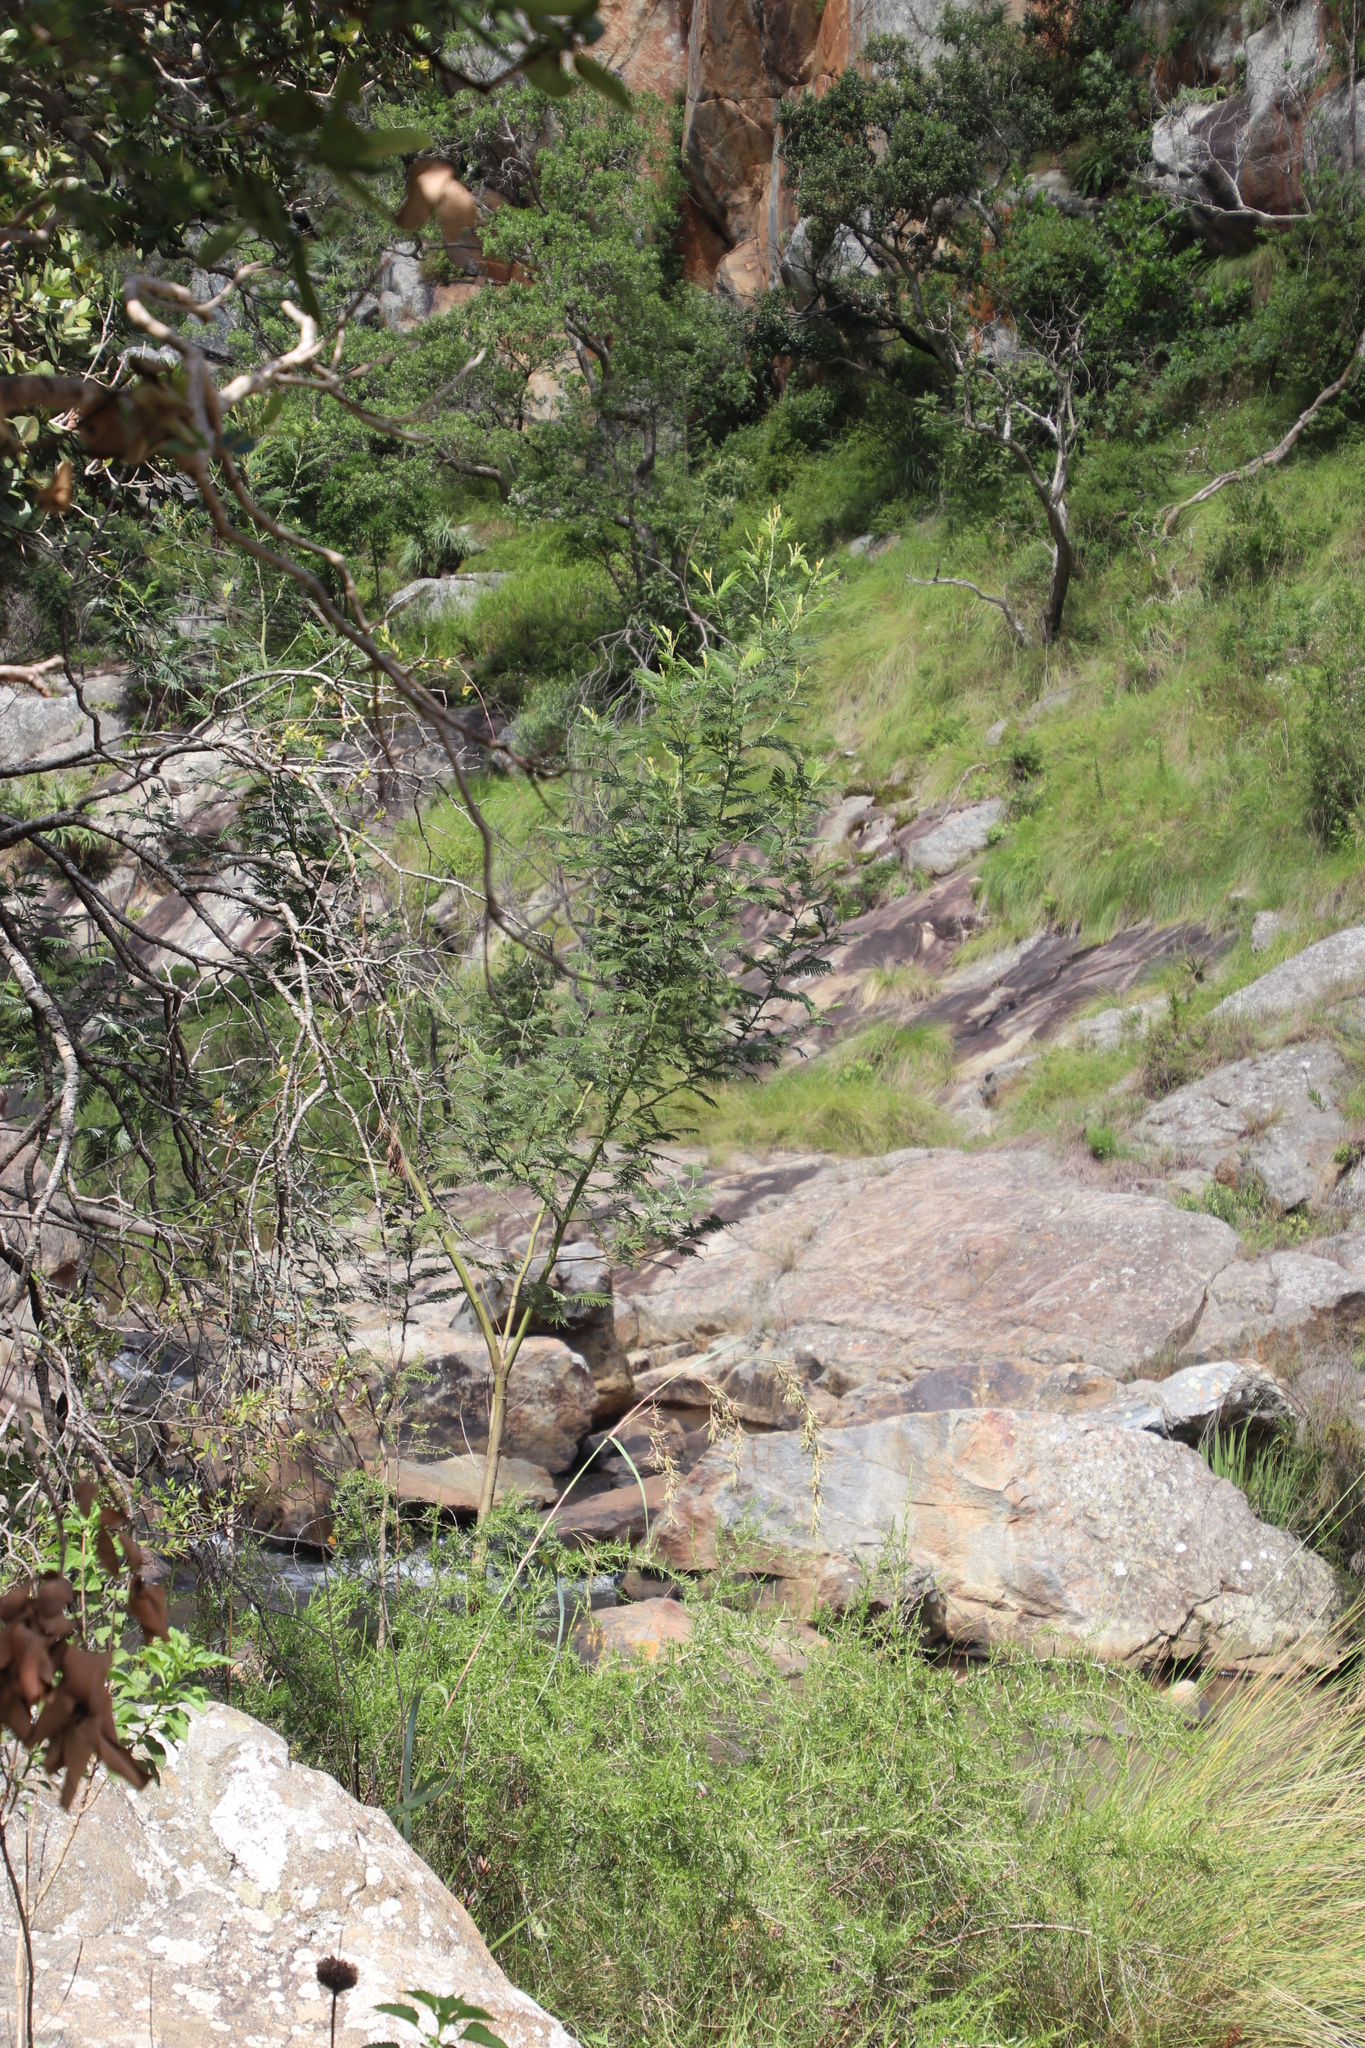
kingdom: Plantae
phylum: Tracheophyta
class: Magnoliopsida
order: Fabales
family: Fabaceae
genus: Acacia
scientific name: Acacia mearnsii
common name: Black wattle
